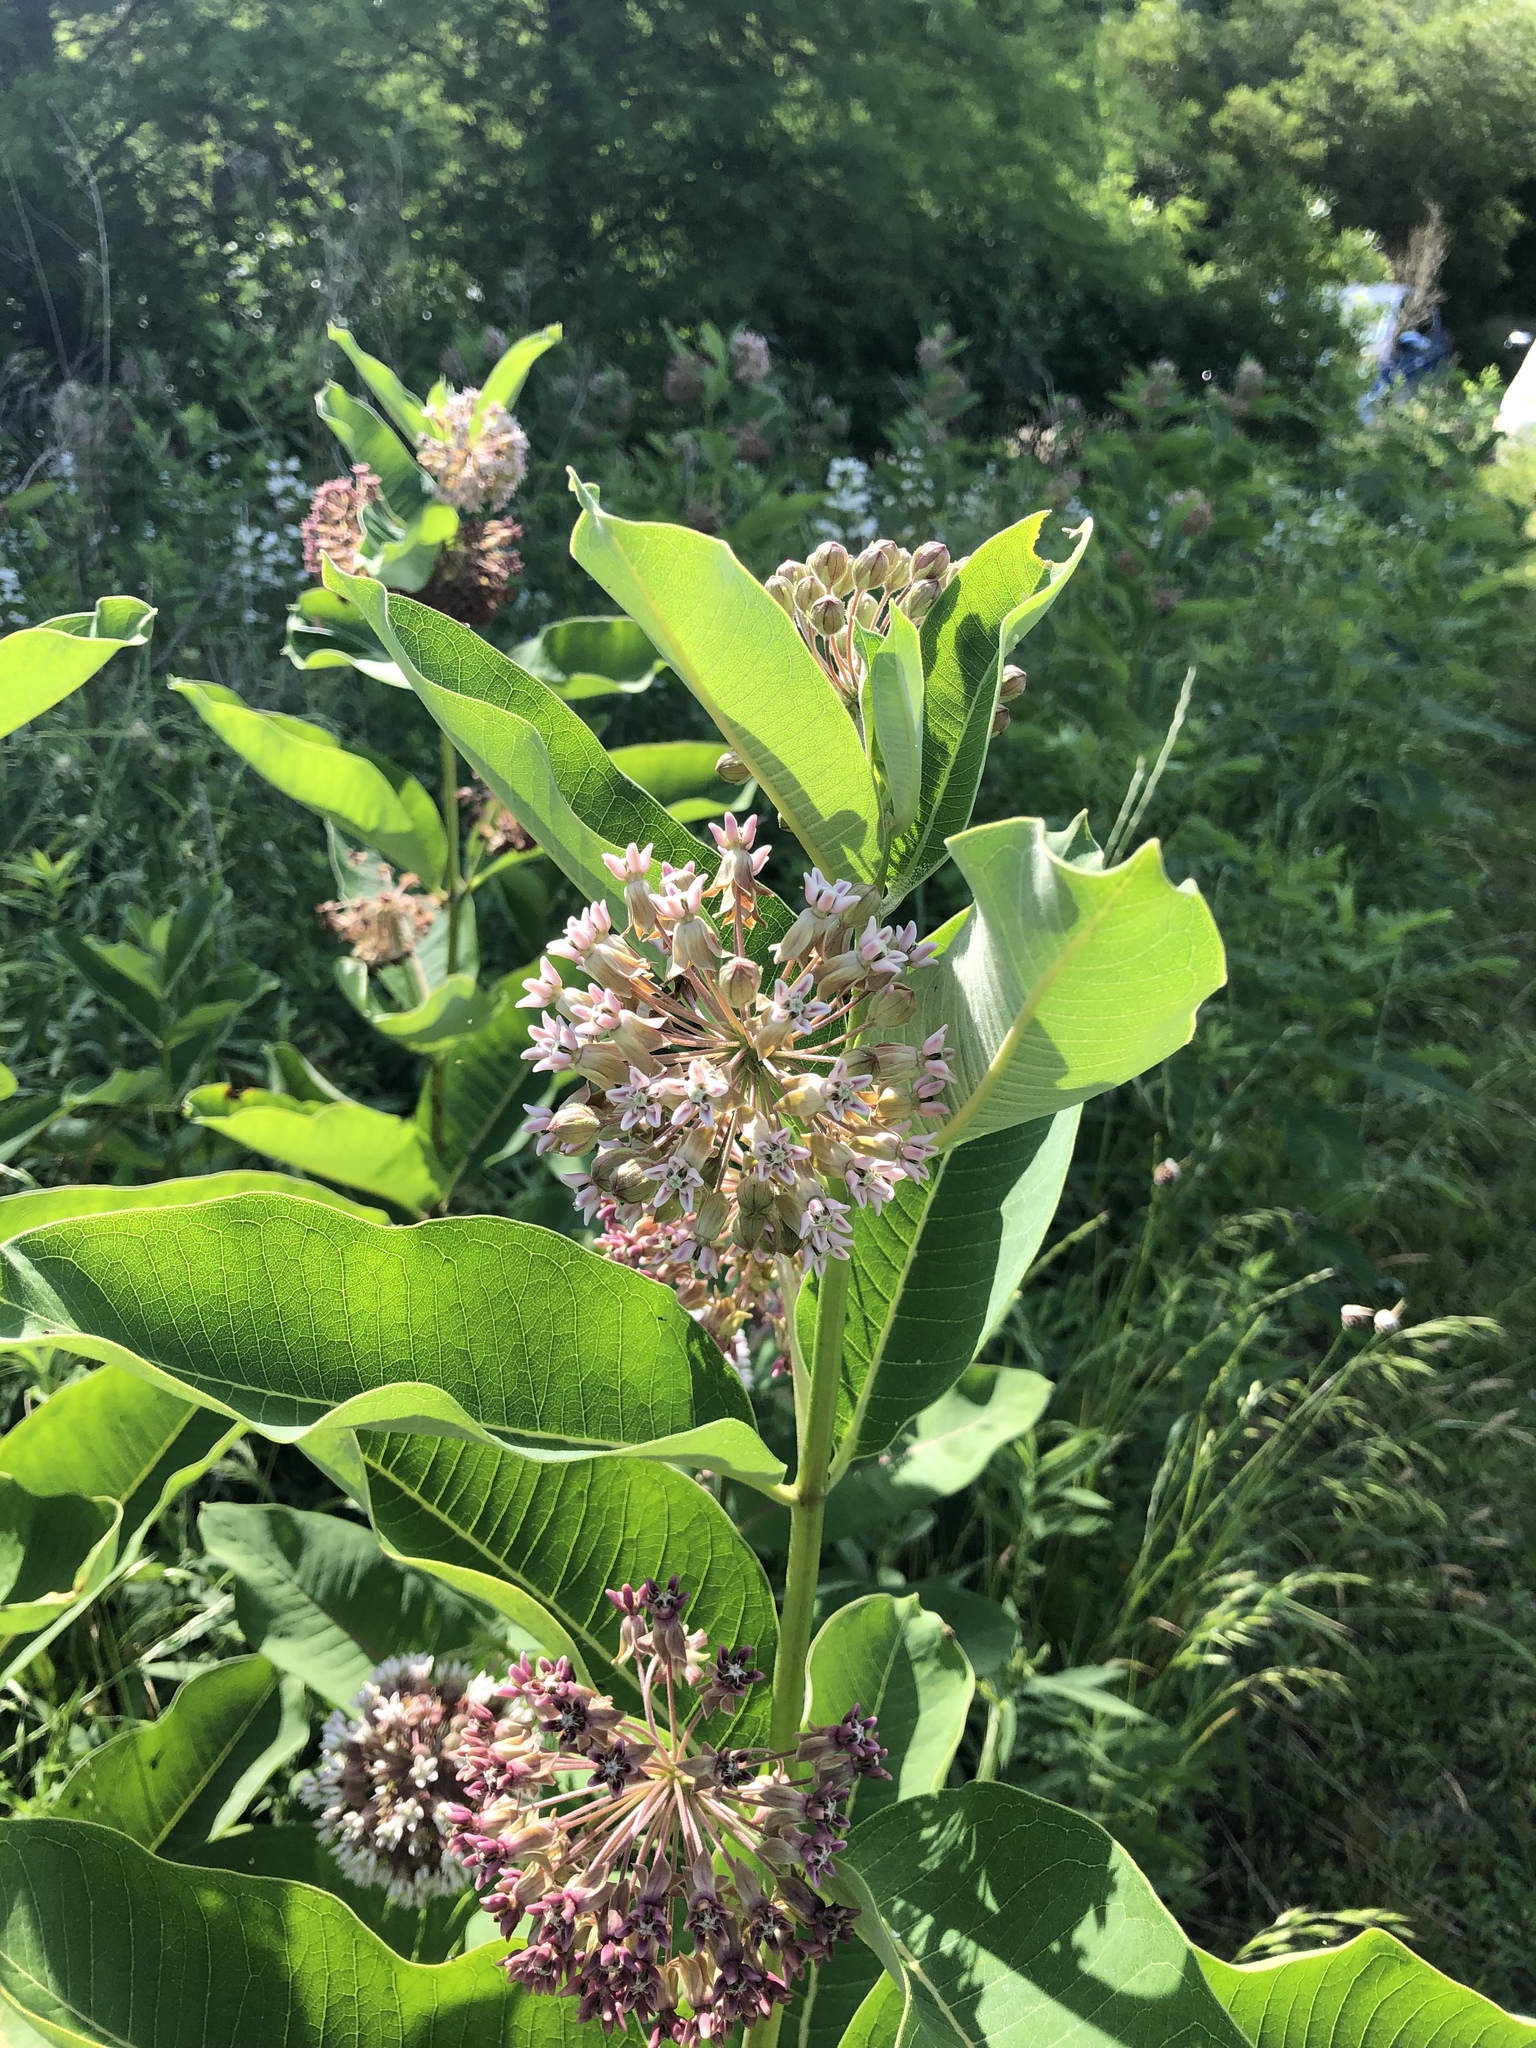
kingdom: Plantae
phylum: Tracheophyta
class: Magnoliopsida
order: Gentianales
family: Apocynaceae
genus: Asclepias
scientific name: Asclepias syriaca
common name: Common milkweed
